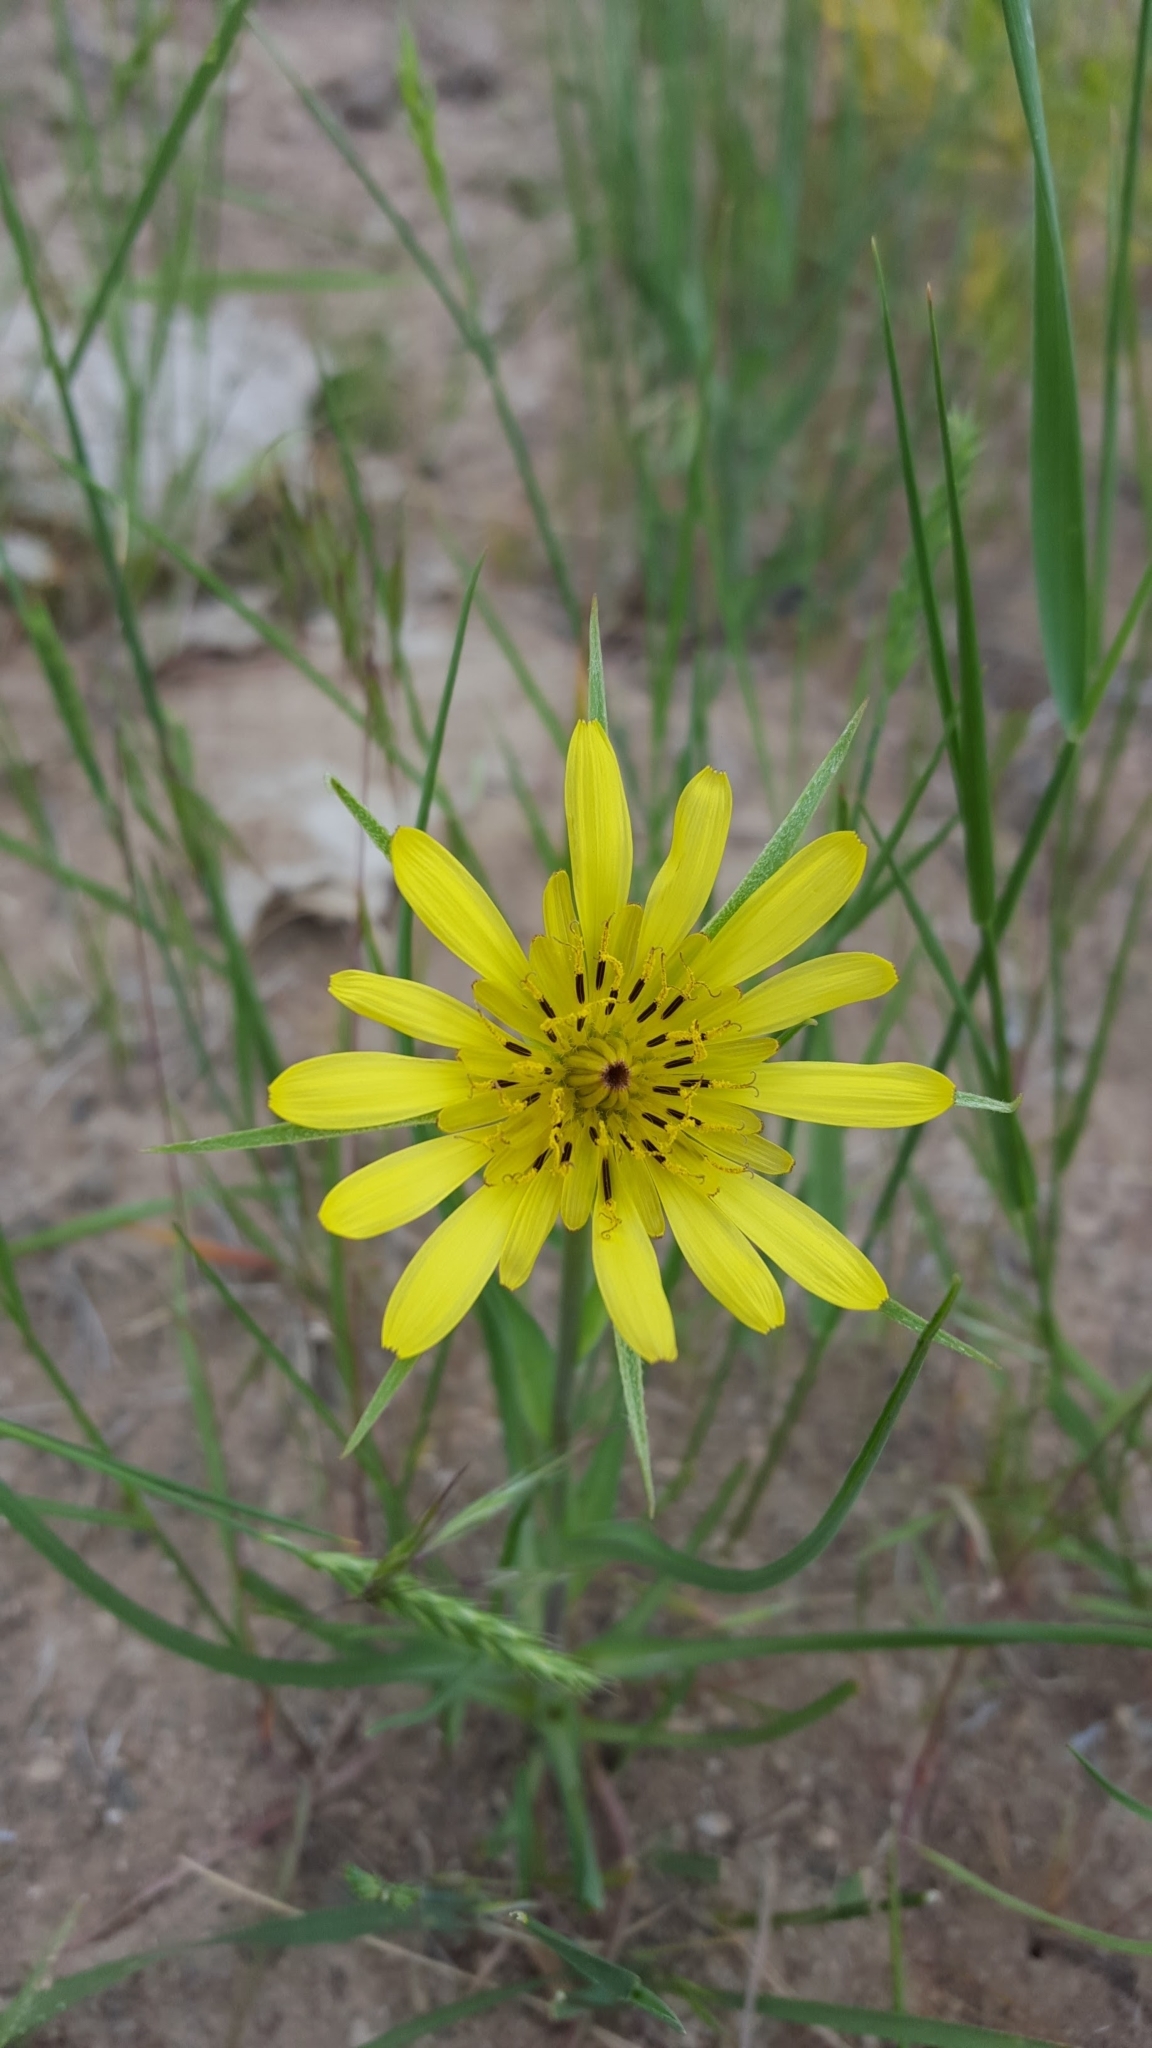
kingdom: Plantae
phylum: Tracheophyta
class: Magnoliopsida
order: Asterales
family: Asteraceae
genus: Tragopogon
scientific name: Tragopogon dubius
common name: Yellow salsify
